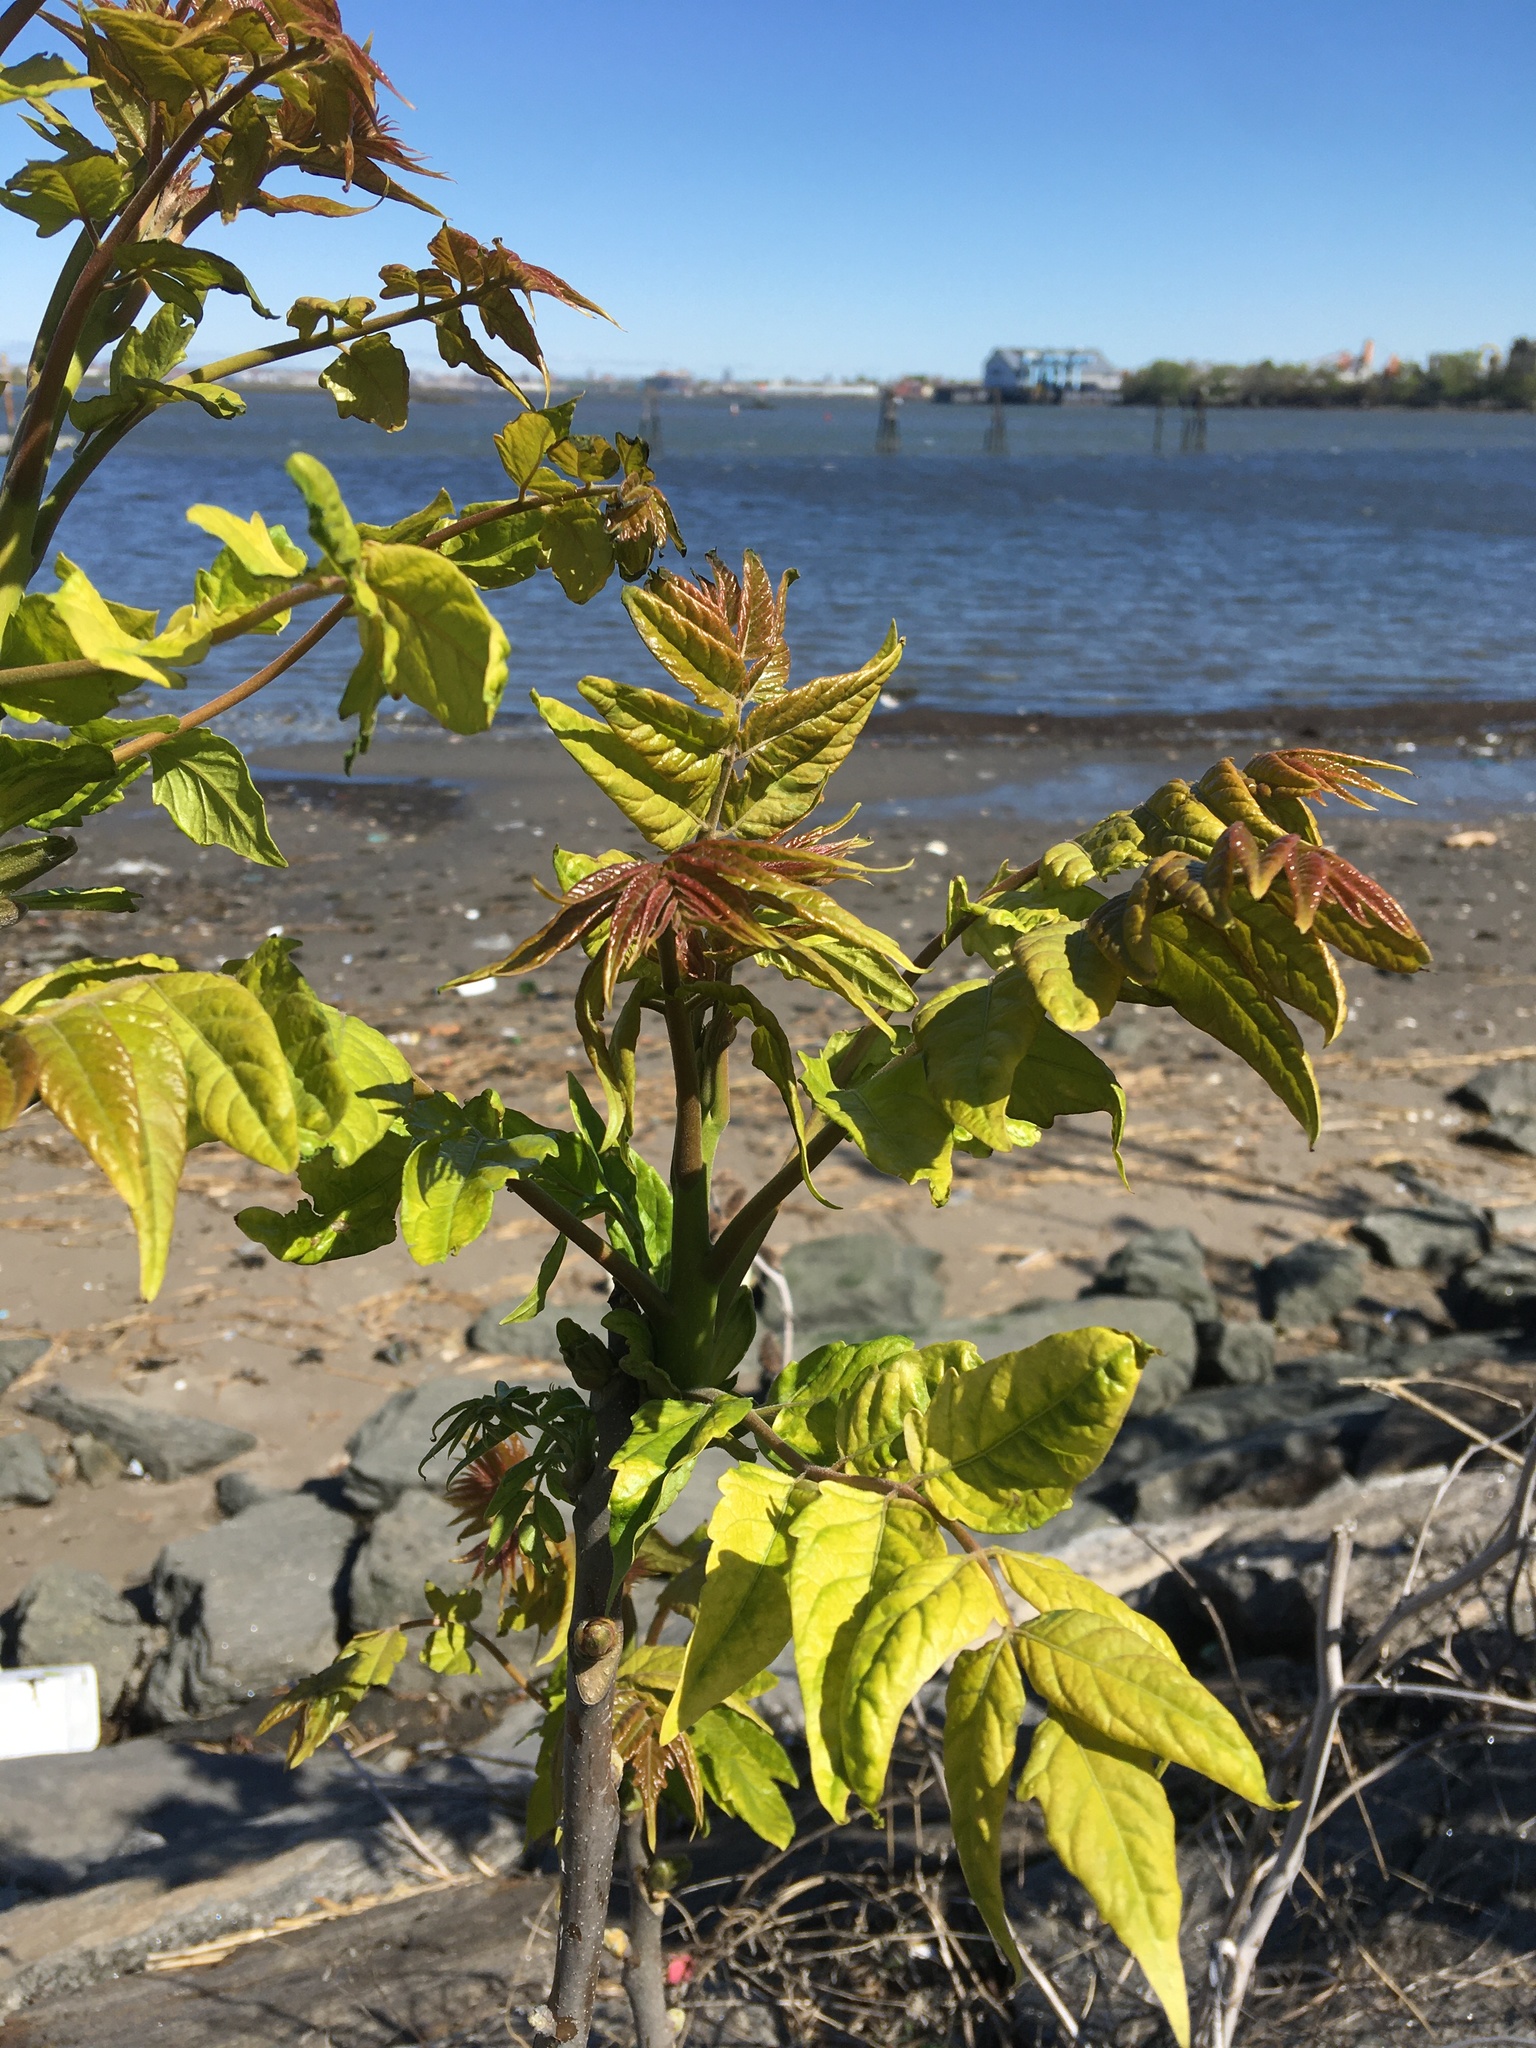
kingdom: Plantae
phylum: Tracheophyta
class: Magnoliopsida
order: Sapindales
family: Simaroubaceae
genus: Ailanthus
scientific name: Ailanthus altissima
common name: Tree-of-heaven
